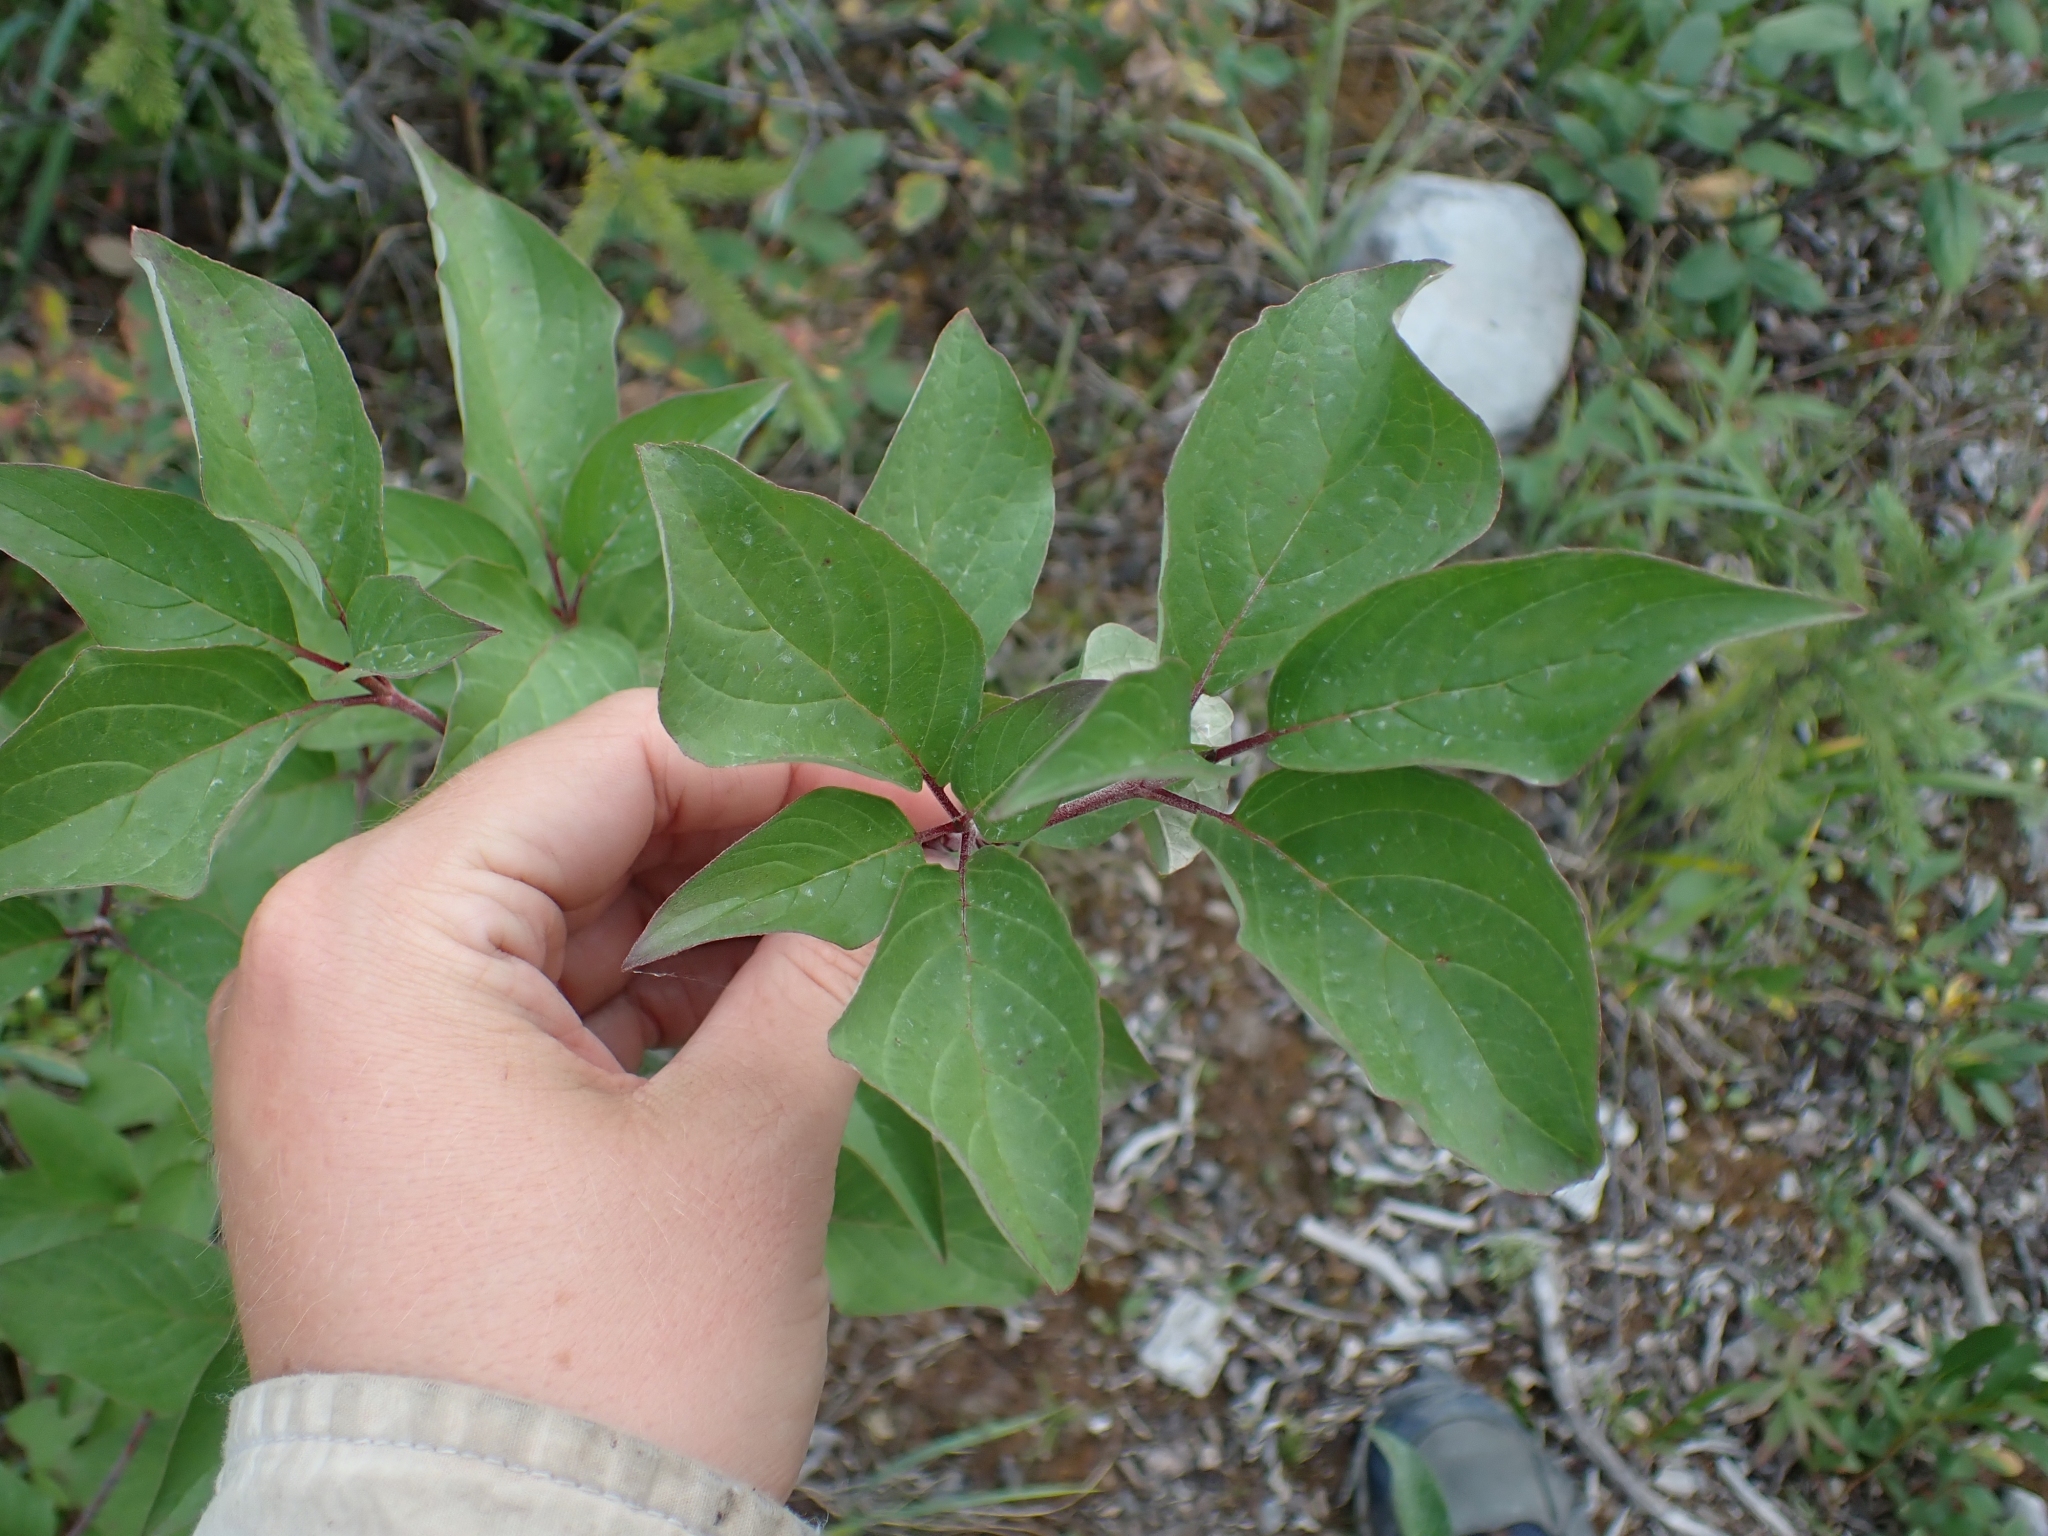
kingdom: Plantae
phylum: Tracheophyta
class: Magnoliopsida
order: Cornales
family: Cornaceae
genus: Cornus
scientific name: Cornus sericea
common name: Red-osier dogwood
